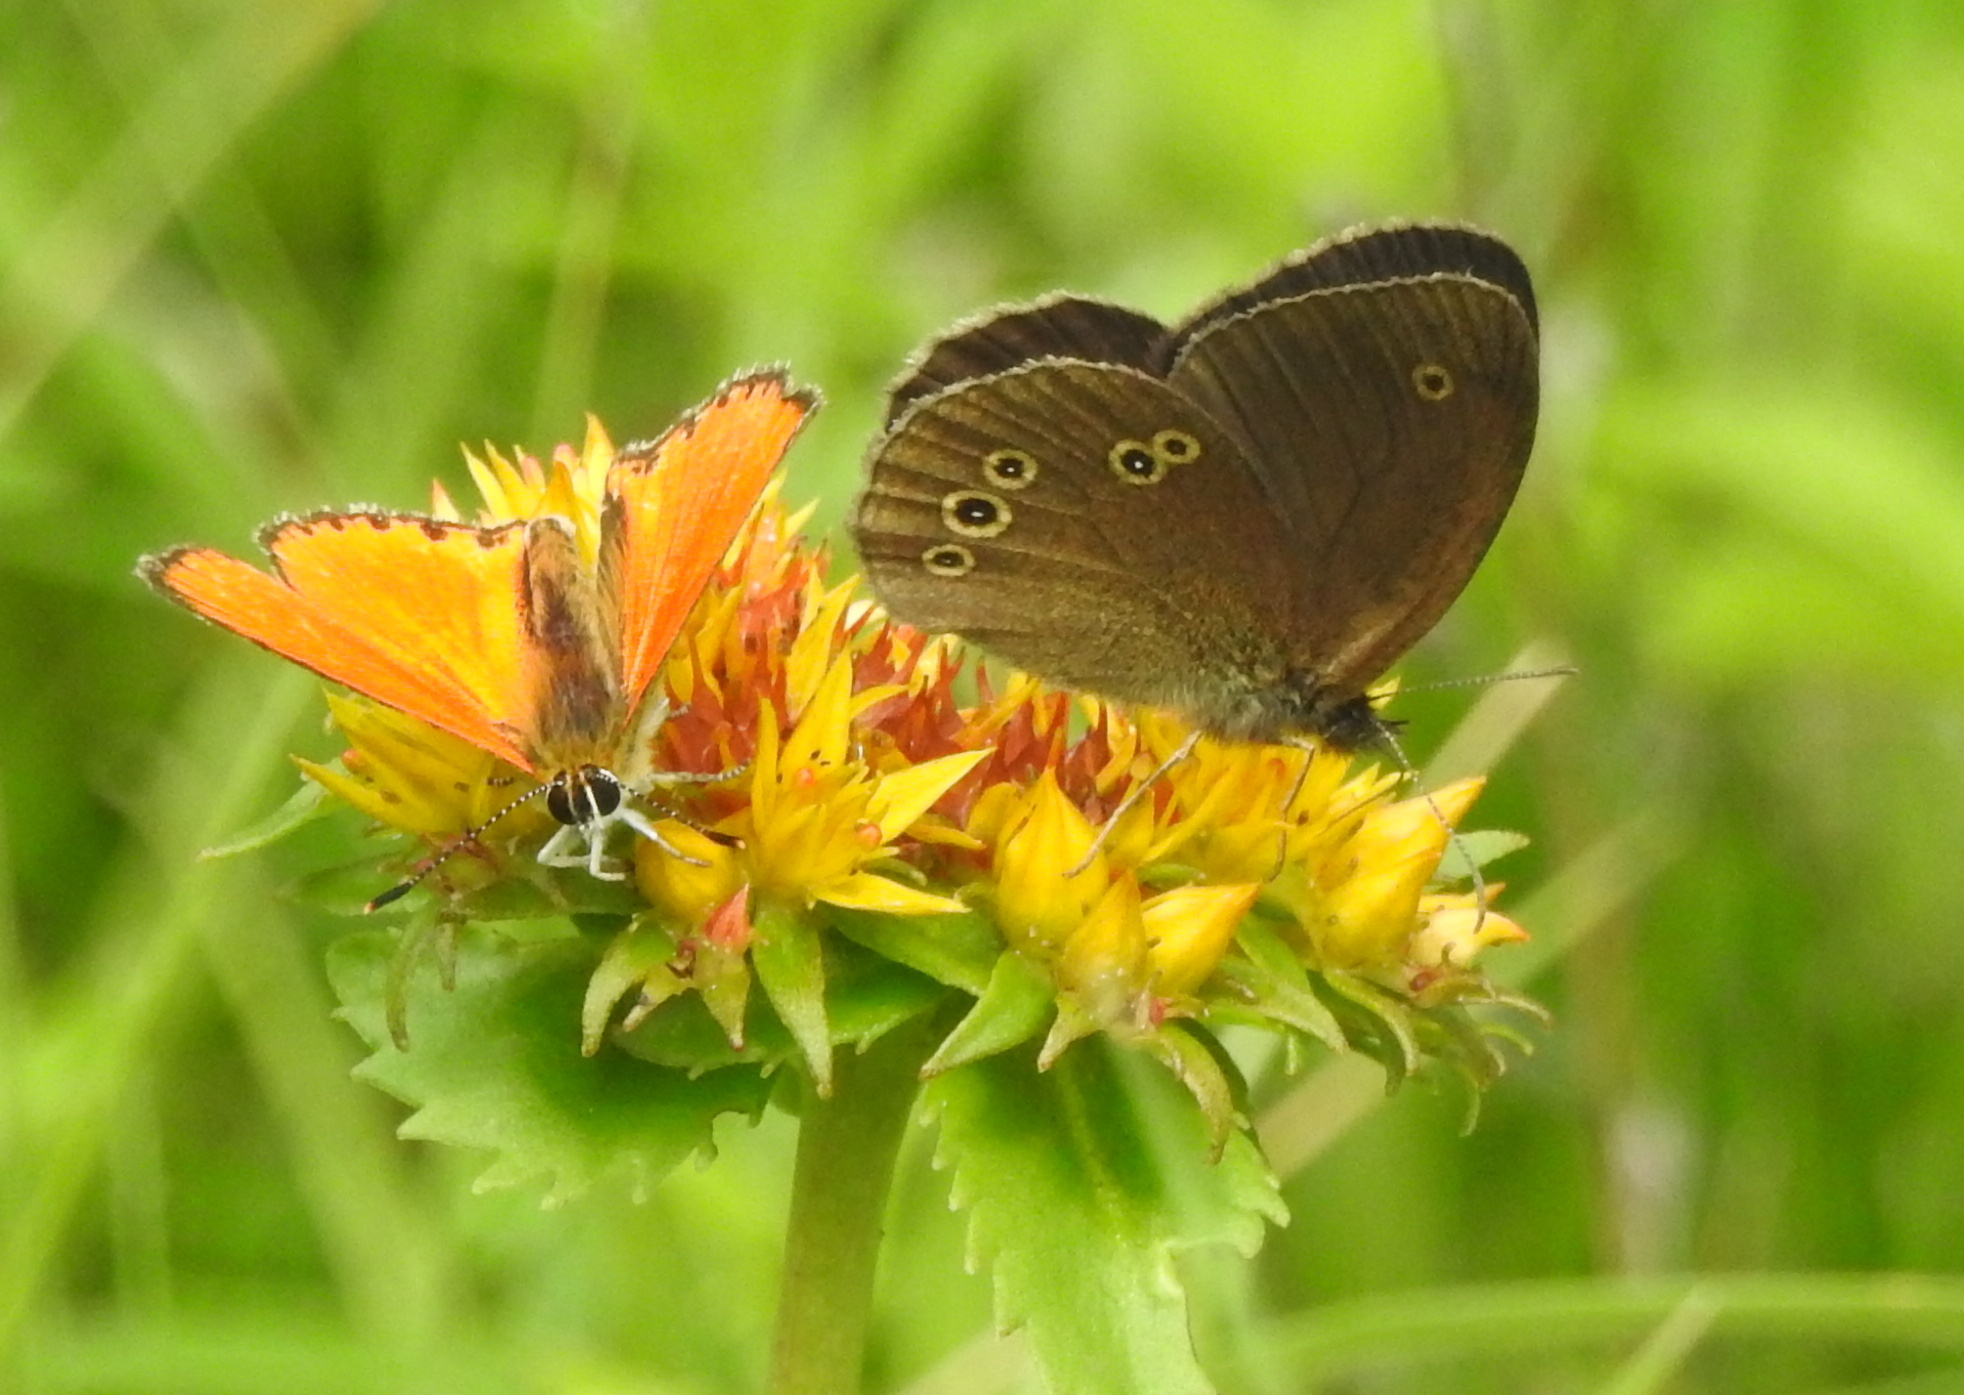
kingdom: Animalia
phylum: Arthropoda
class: Insecta
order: Lepidoptera
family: Nymphalidae
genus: Aphantopus
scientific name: Aphantopus hyperantus
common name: Ringlet
